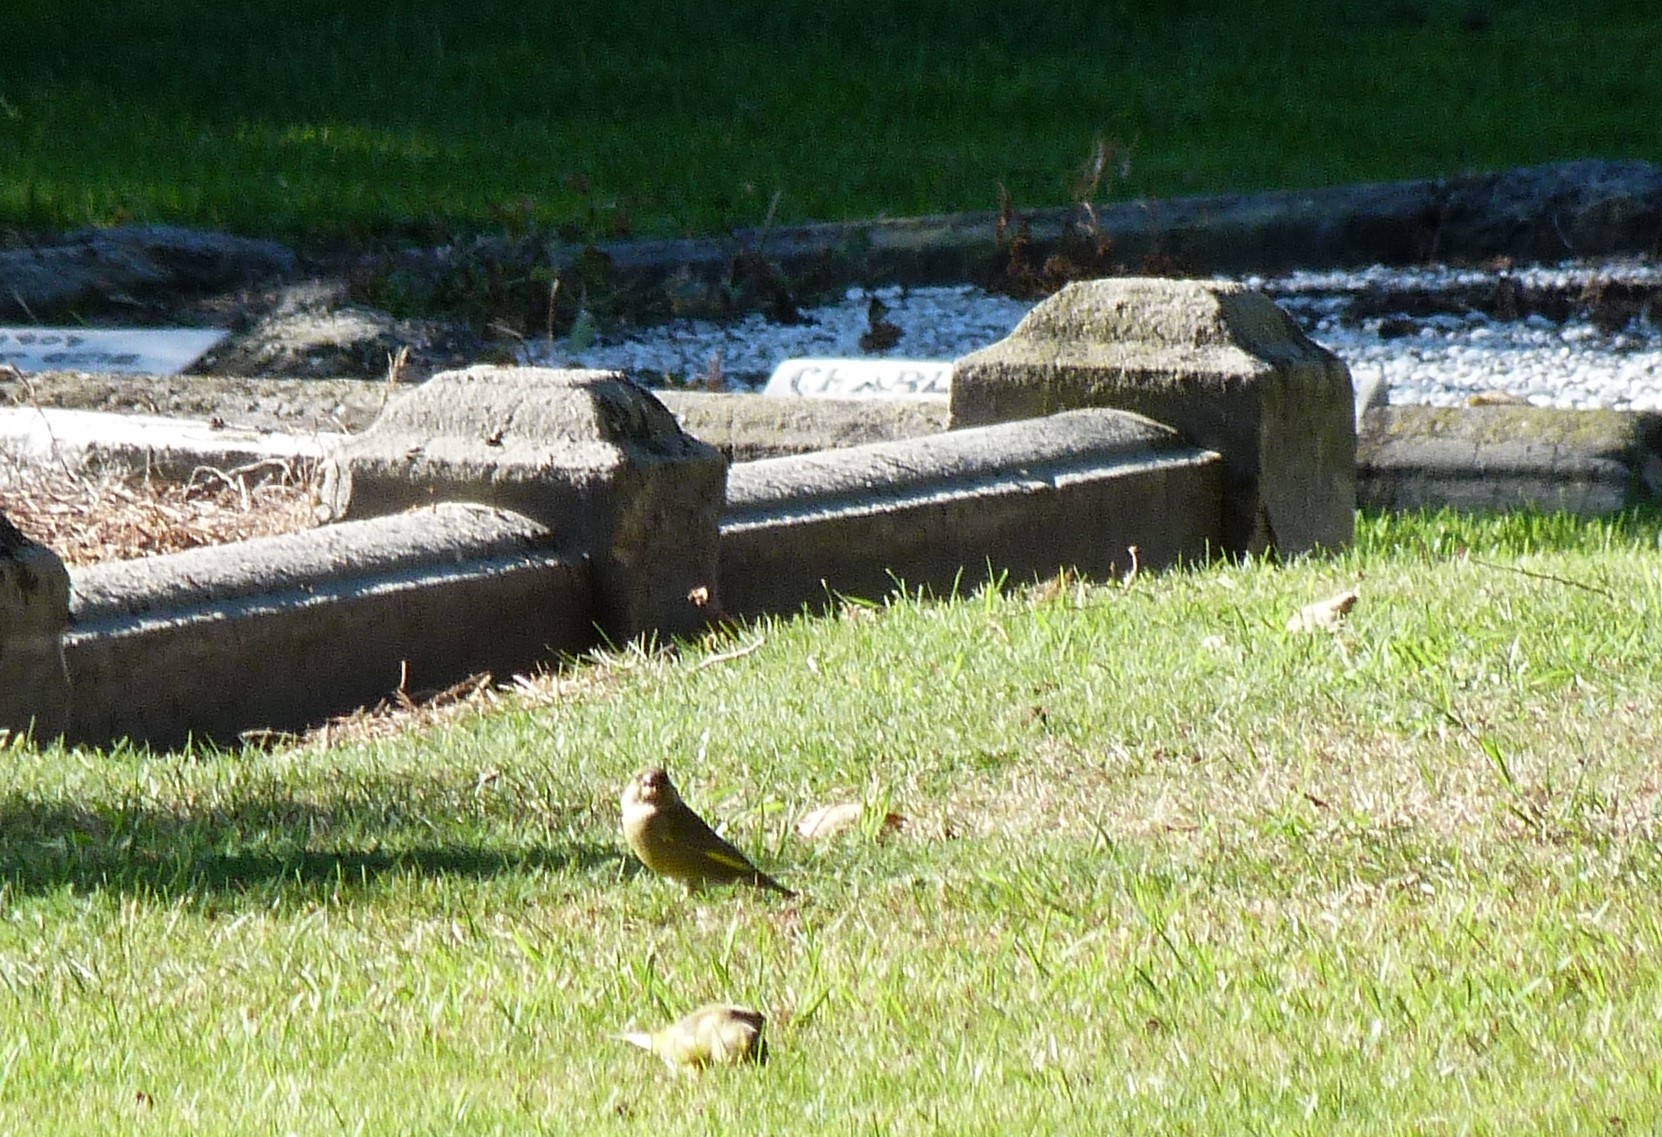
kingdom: Plantae
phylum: Tracheophyta
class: Liliopsida
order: Poales
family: Poaceae
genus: Chloris
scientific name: Chloris chloris
